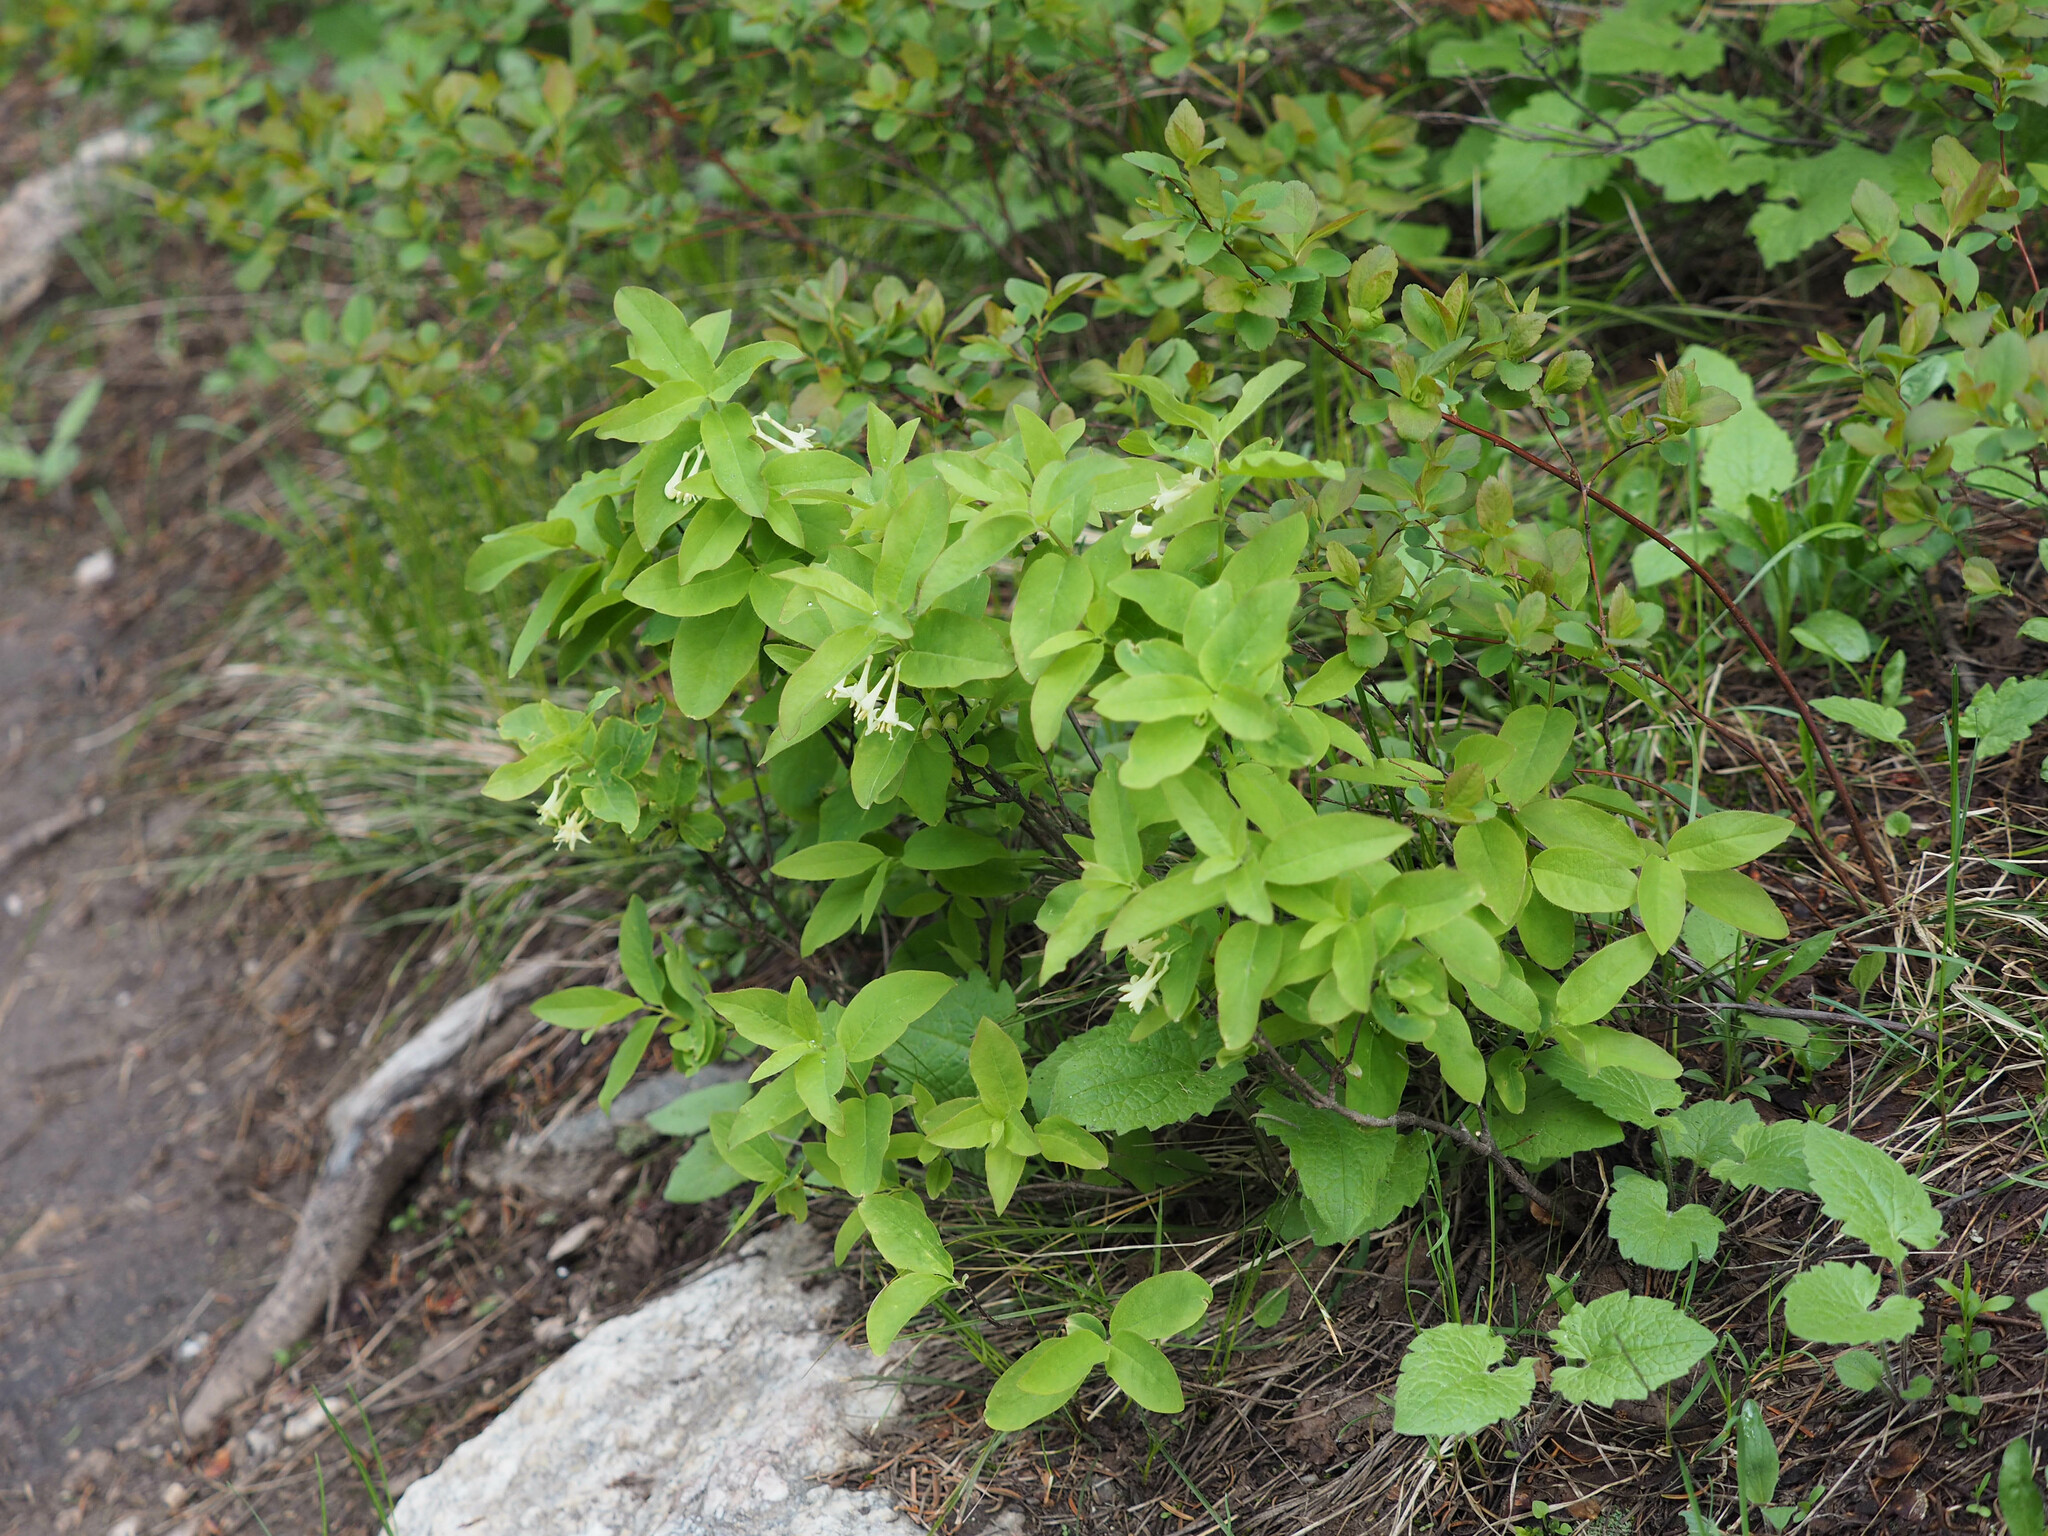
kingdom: Plantae
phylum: Tracheophyta
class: Magnoliopsida
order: Dipsacales
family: Caprifoliaceae
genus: Lonicera
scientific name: Lonicera utahensis
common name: Utah honeysuckle
